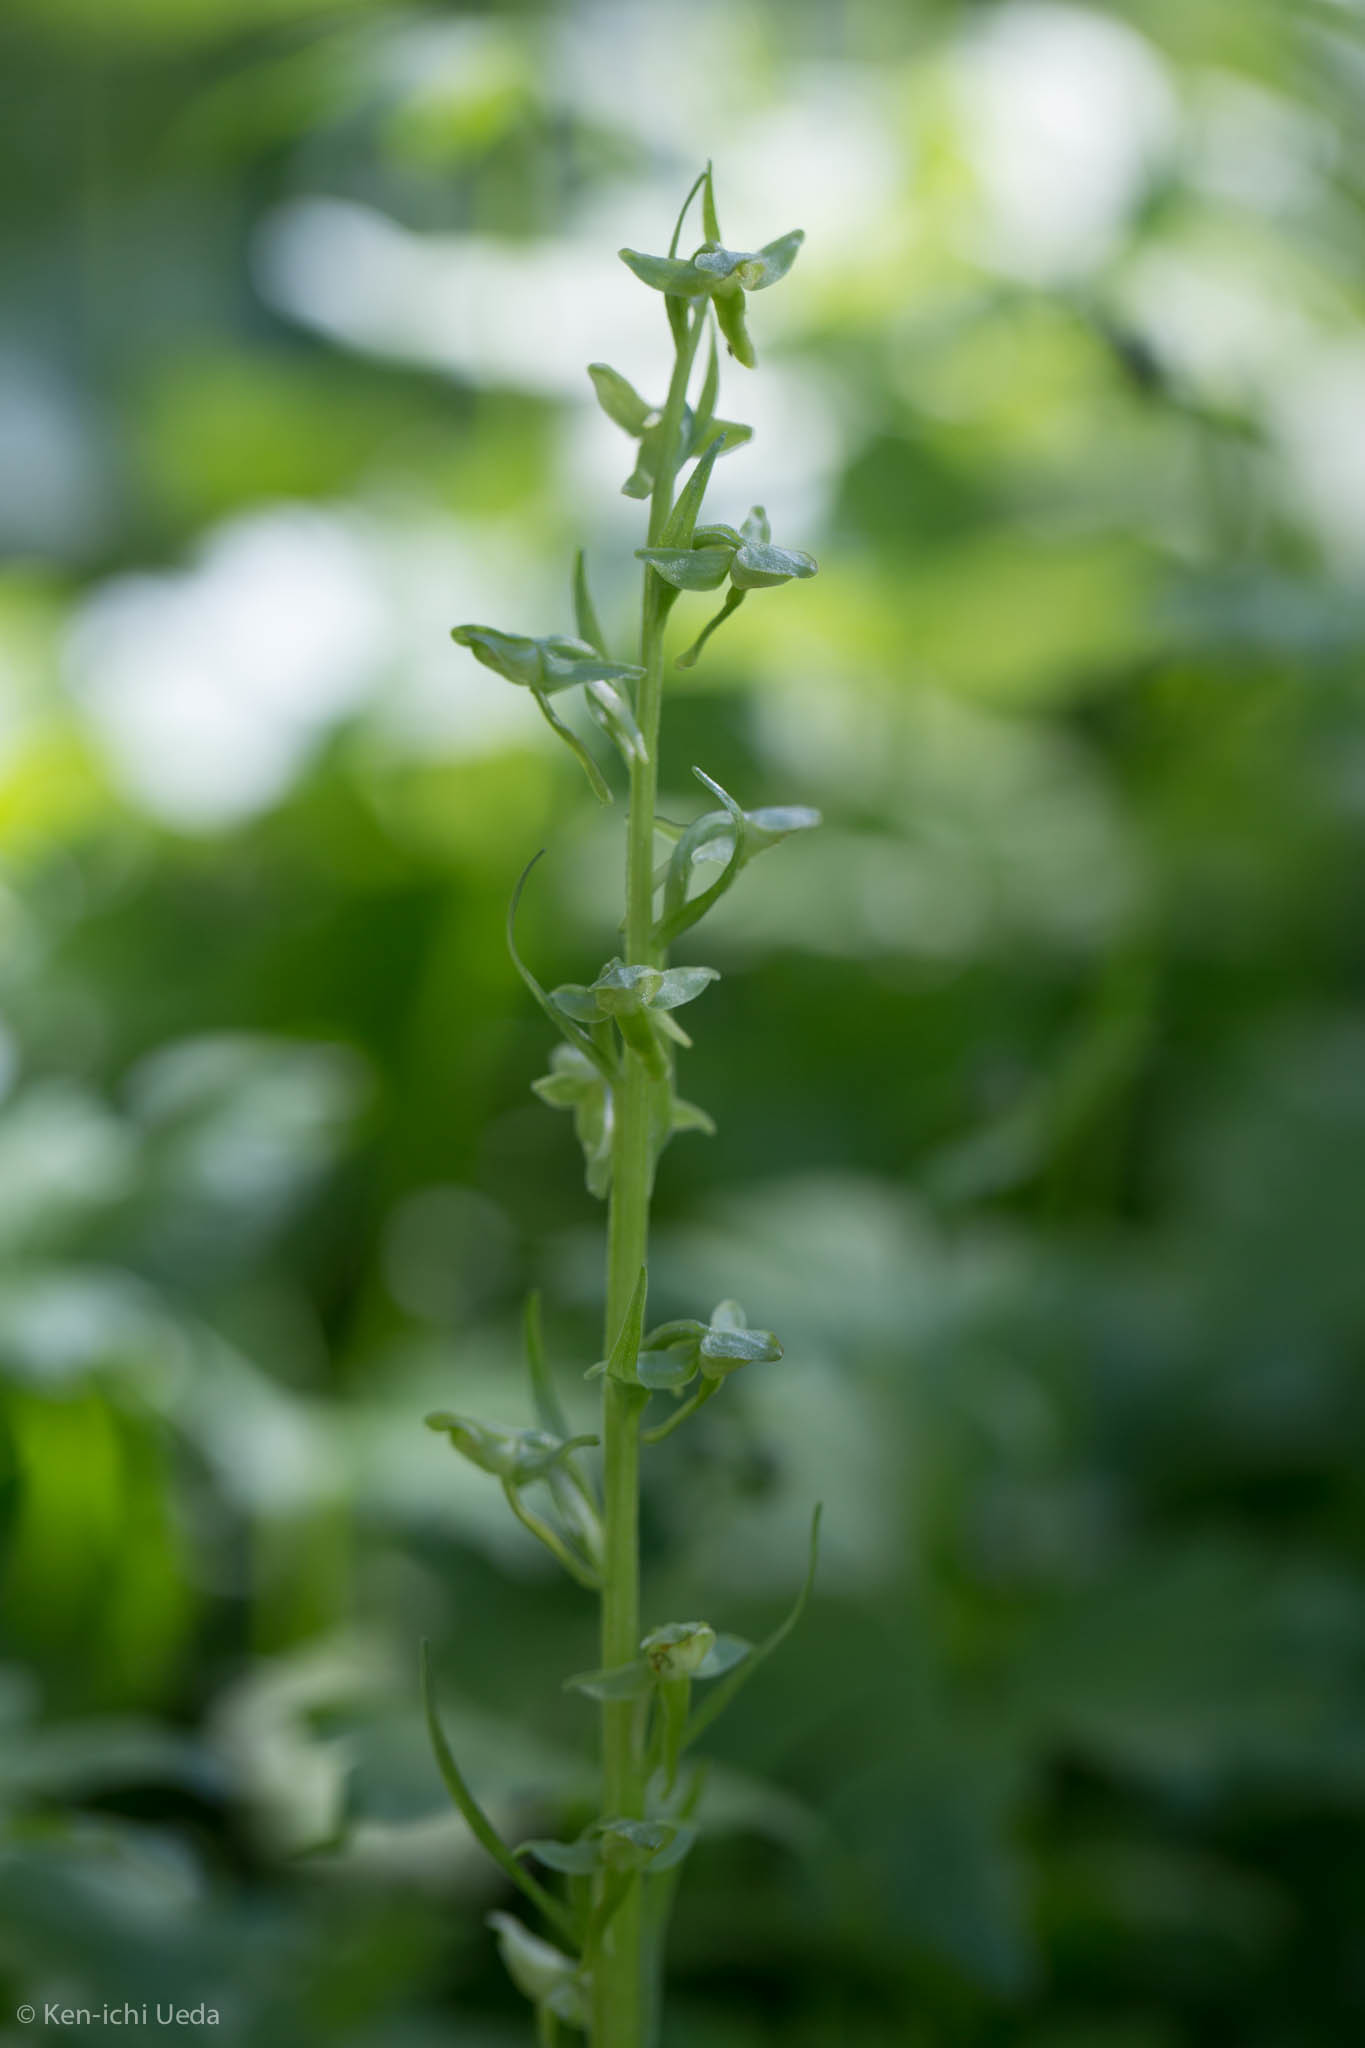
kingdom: Plantae
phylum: Tracheophyta
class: Liliopsida
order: Asparagales
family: Orchidaceae
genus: Platanthera
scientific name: Platanthera sparsiflora
